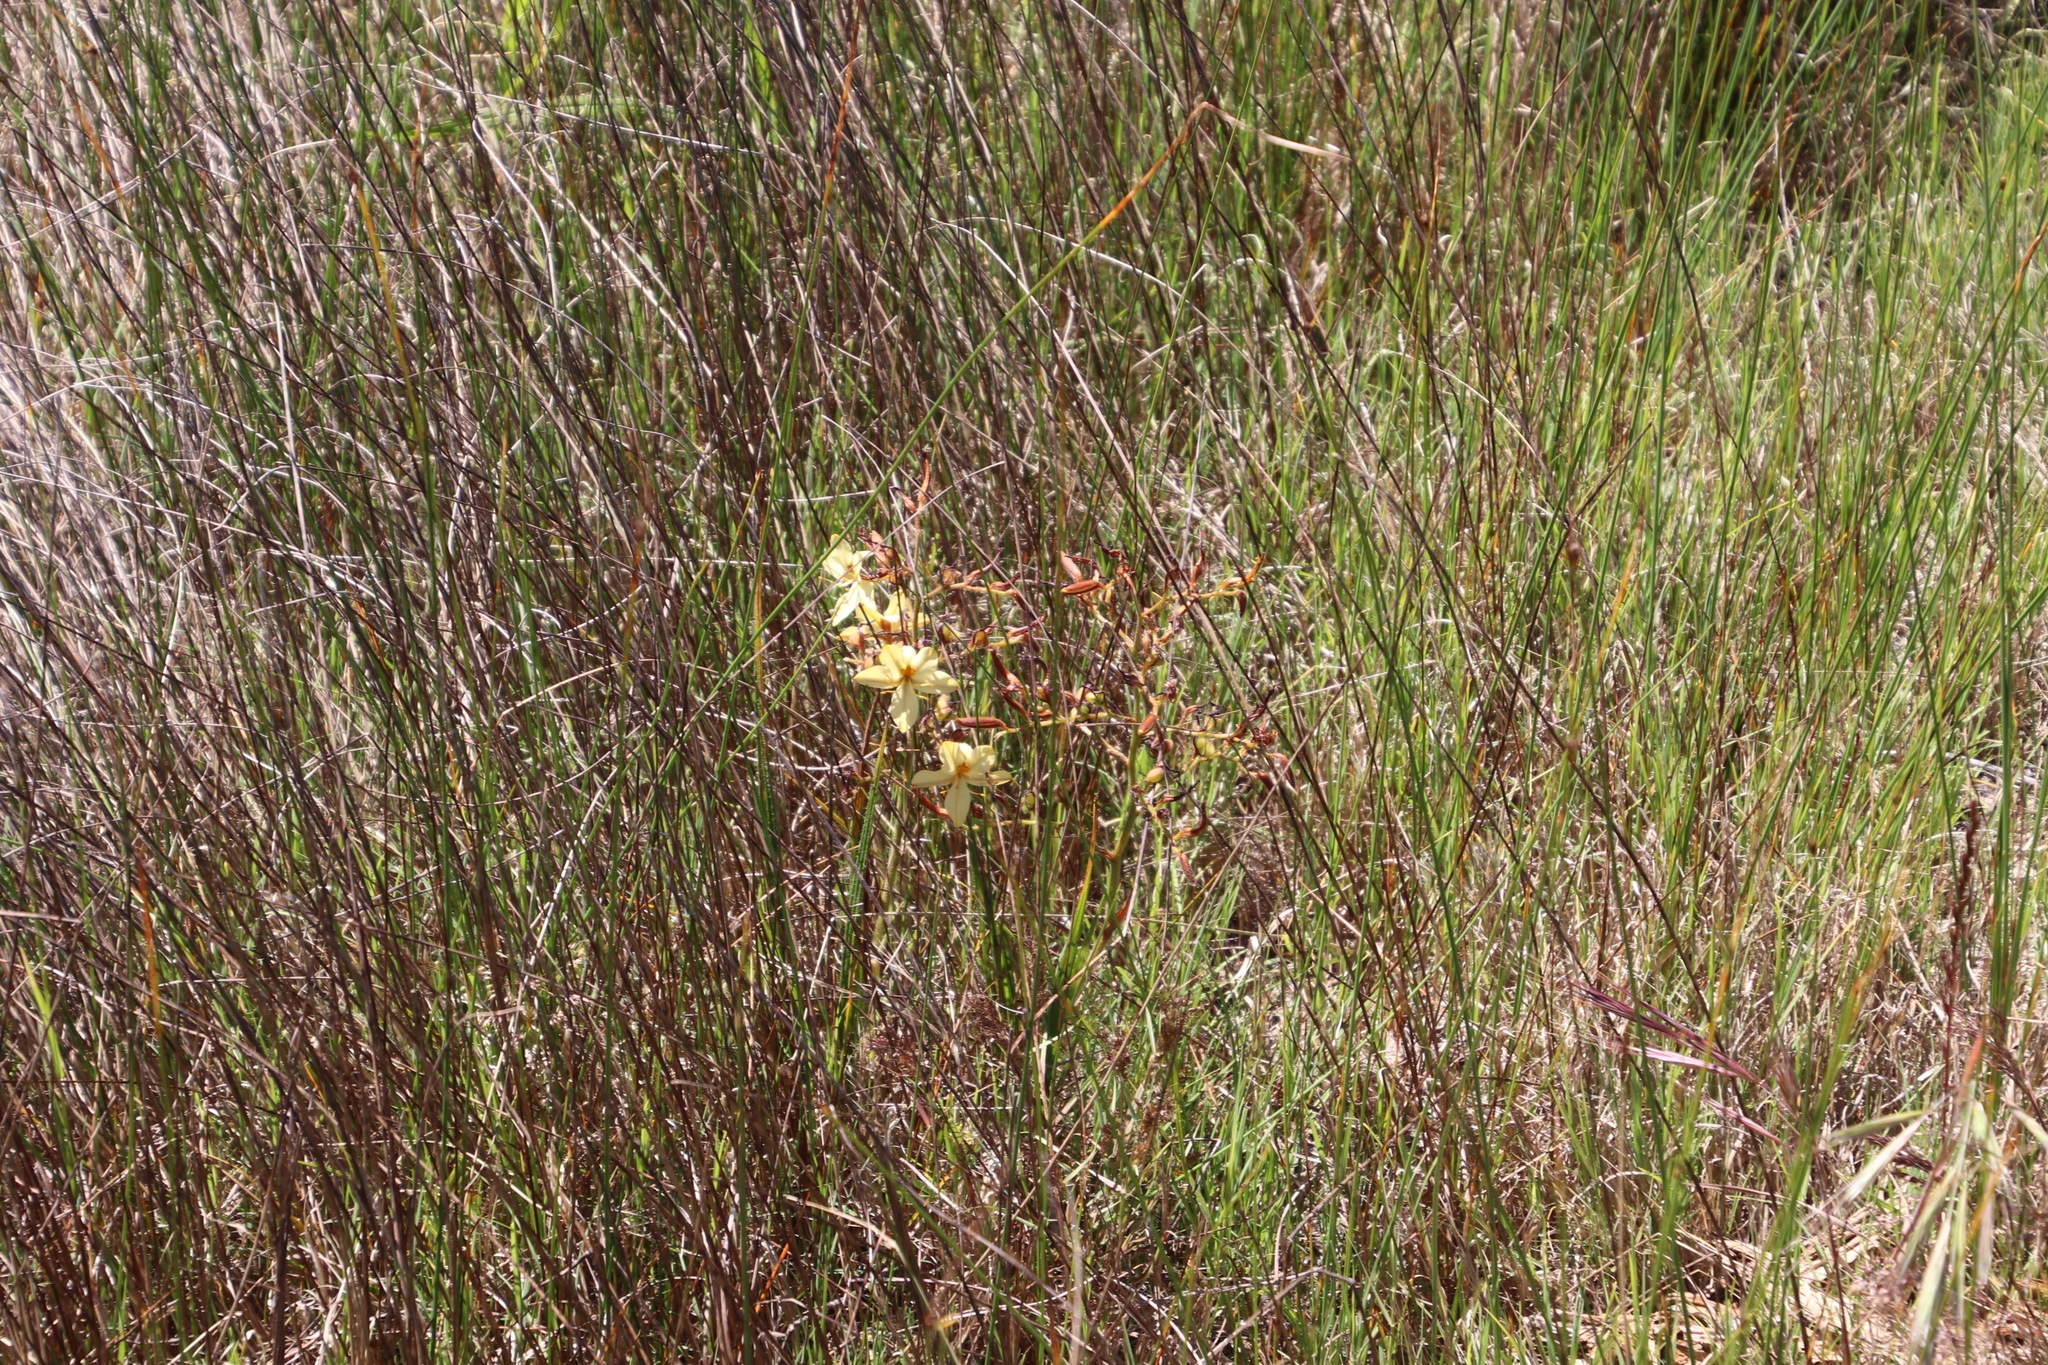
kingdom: Plantae
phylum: Tracheophyta
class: Liliopsida
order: Commelinales
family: Haemodoraceae
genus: Wachendorfia
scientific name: Wachendorfia paniculata
